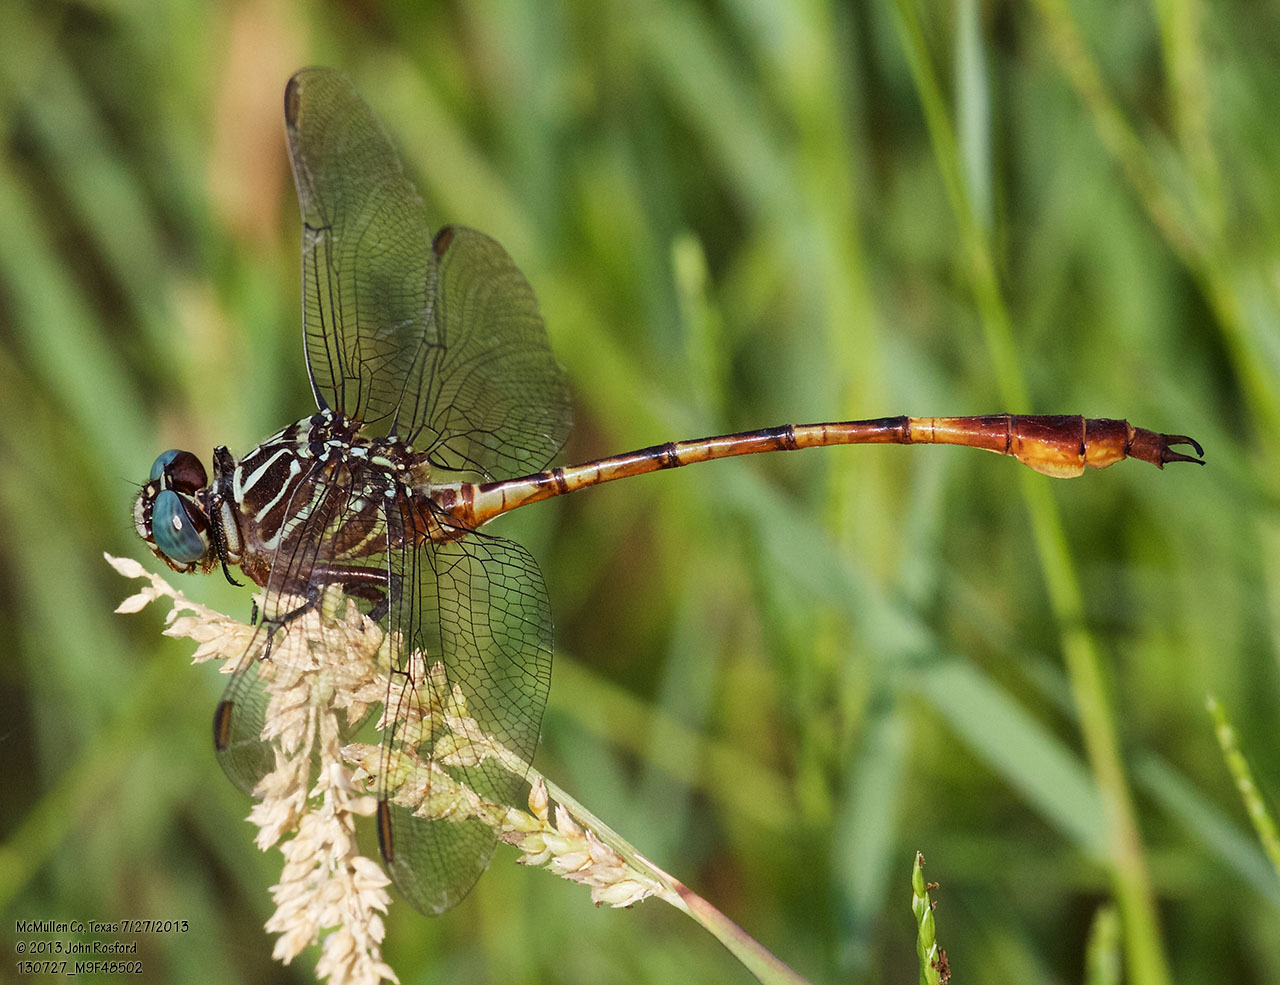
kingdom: Animalia
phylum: Arthropoda
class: Insecta
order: Odonata
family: Gomphidae
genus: Aphylla
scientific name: Aphylla protracta
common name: Narrow-striped forceptail
